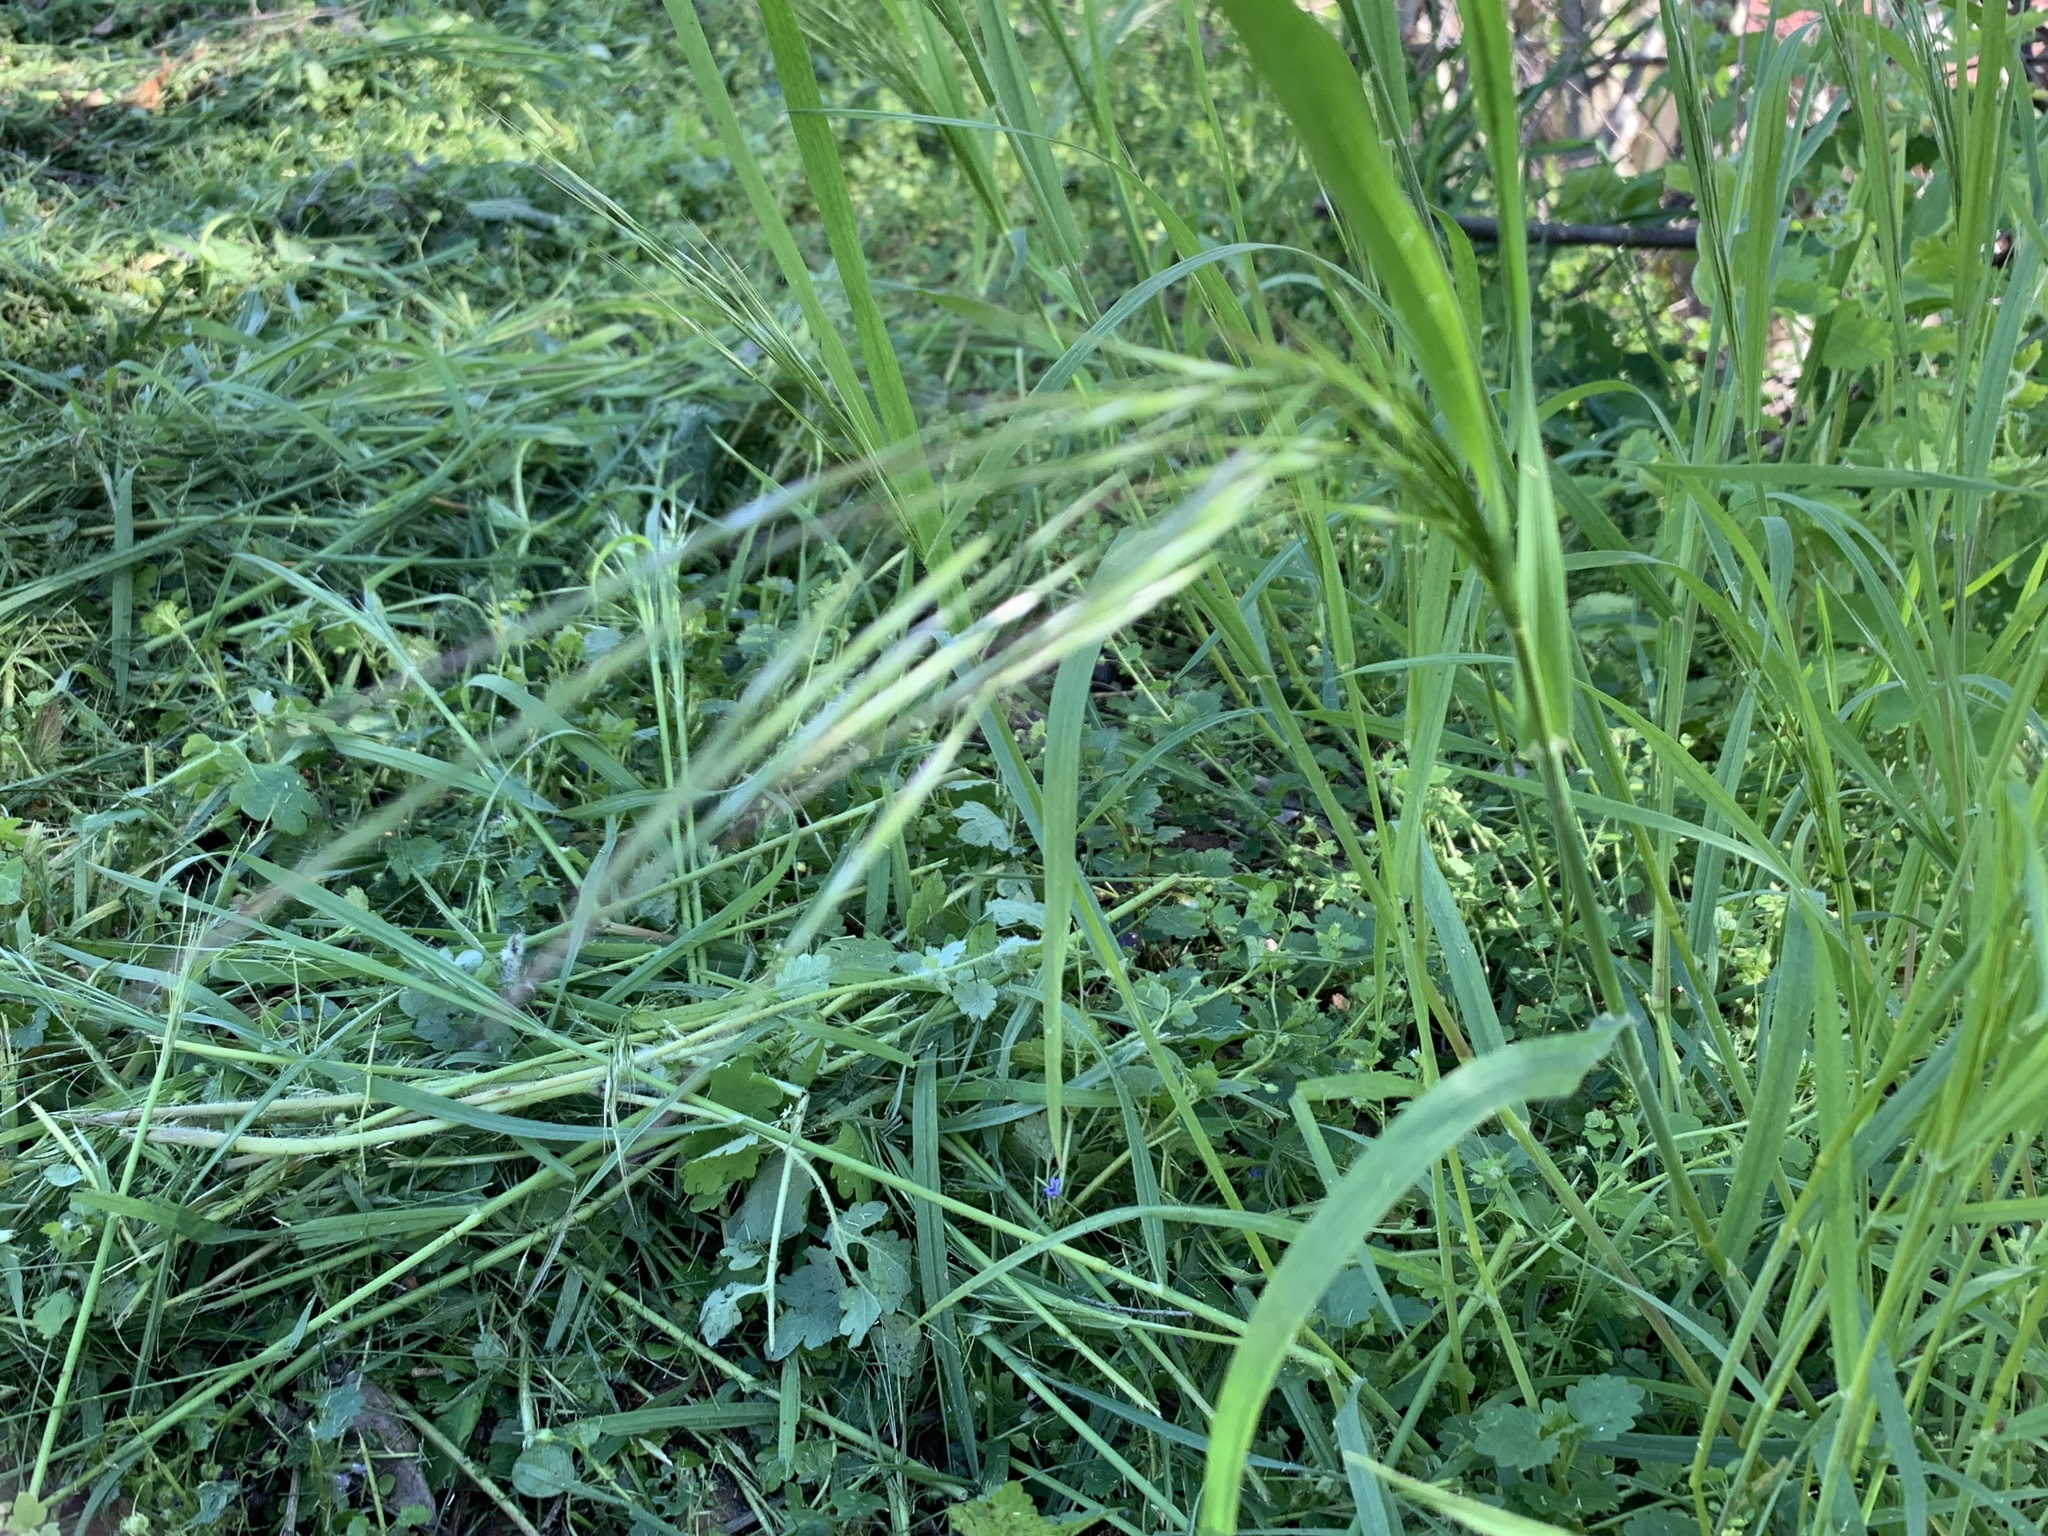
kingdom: Plantae
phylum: Tracheophyta
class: Liliopsida
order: Poales
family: Poaceae
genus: Bromus
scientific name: Bromus sterilis
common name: Poverty brome
